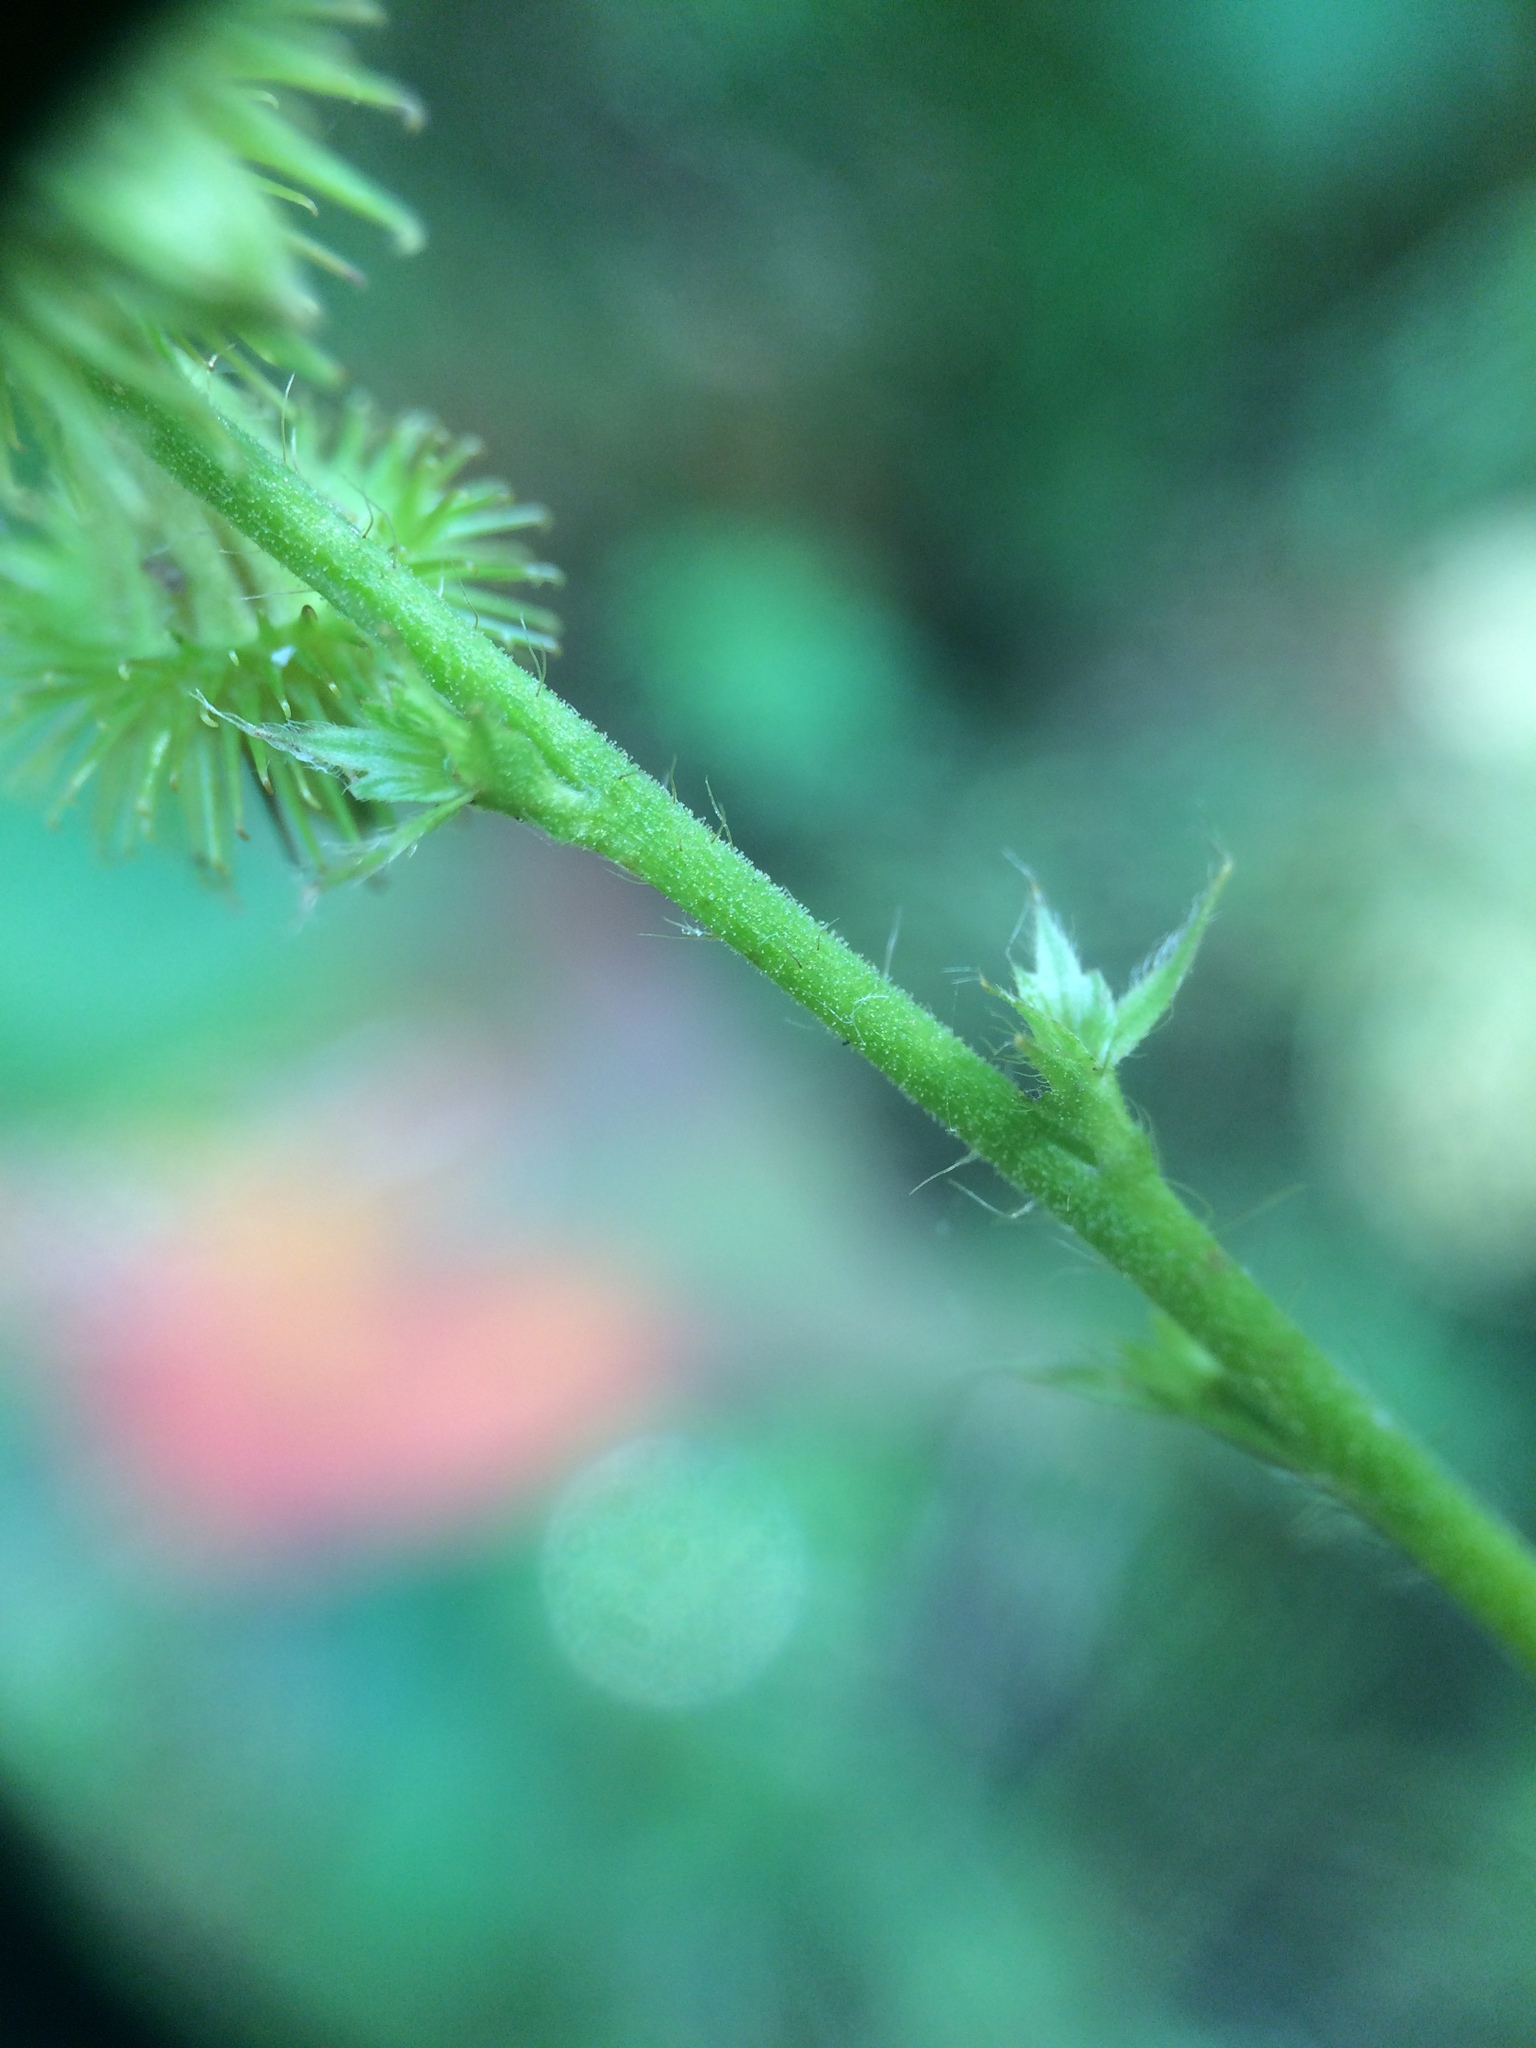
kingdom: Plantae
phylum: Tracheophyta
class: Magnoliopsida
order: Rosales
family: Rosaceae
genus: Agrimonia
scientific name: Agrimonia gryposepala
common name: Common agrimony
